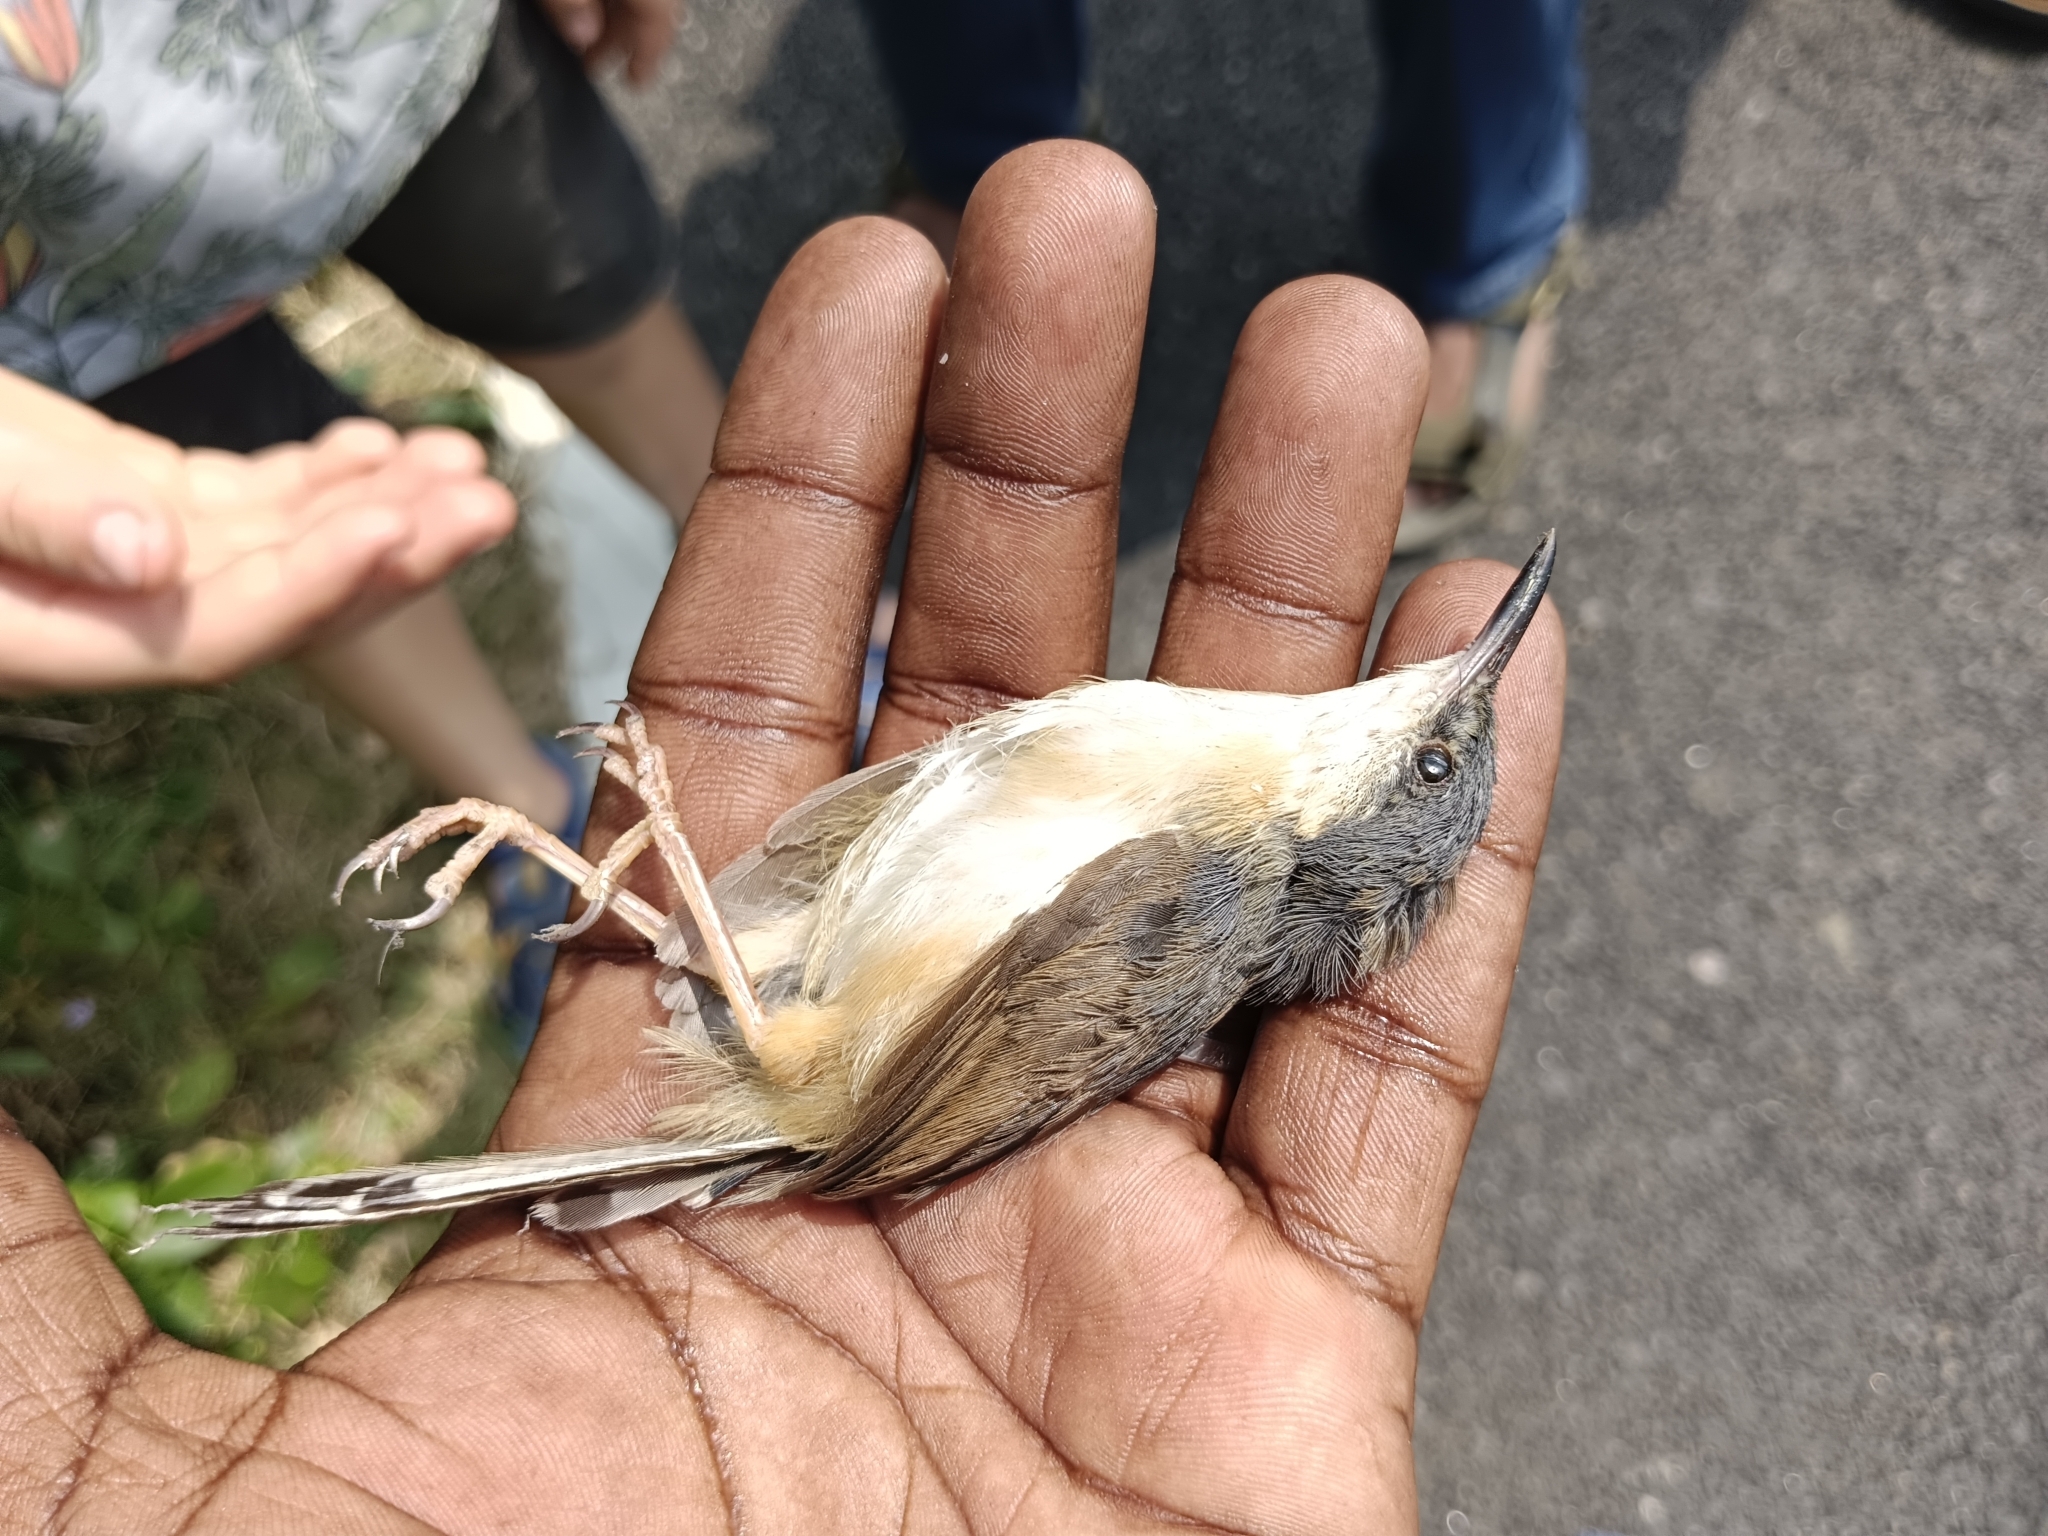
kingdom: Animalia
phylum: Chordata
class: Aves
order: Passeriformes
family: Cisticolidae
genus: Prinia
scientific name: Prinia socialis
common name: Ashy prinia
